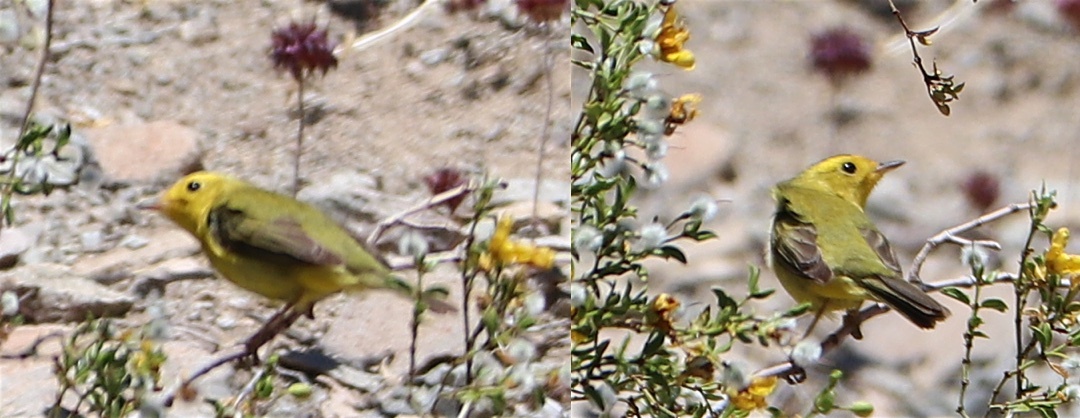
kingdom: Animalia
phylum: Chordata
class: Aves
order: Passeriformes
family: Parulidae
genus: Cardellina
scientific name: Cardellina pusilla
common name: Wilson's warbler
